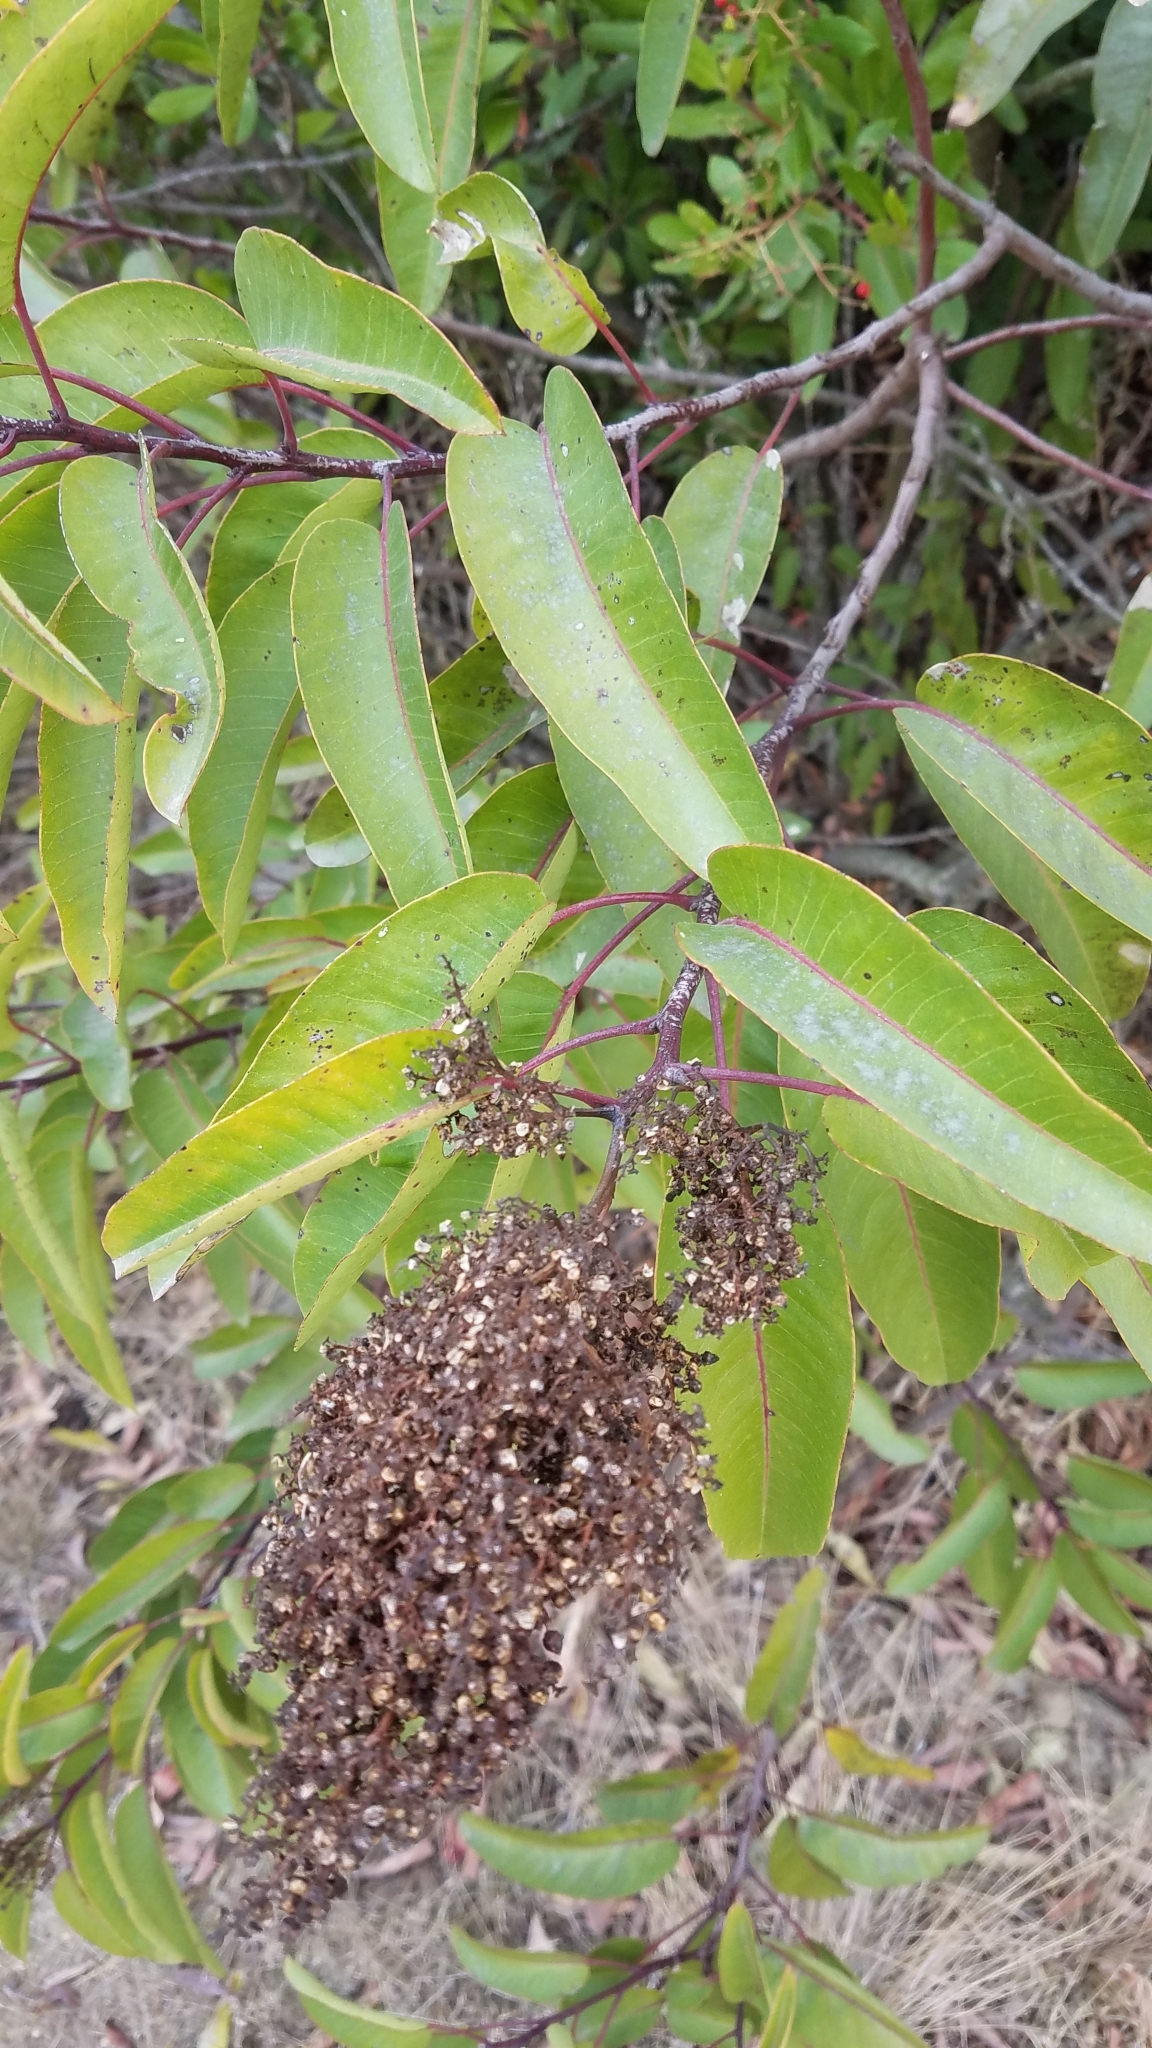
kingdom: Plantae
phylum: Tracheophyta
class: Magnoliopsida
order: Sapindales
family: Anacardiaceae
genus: Malosma
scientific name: Malosma laurina
